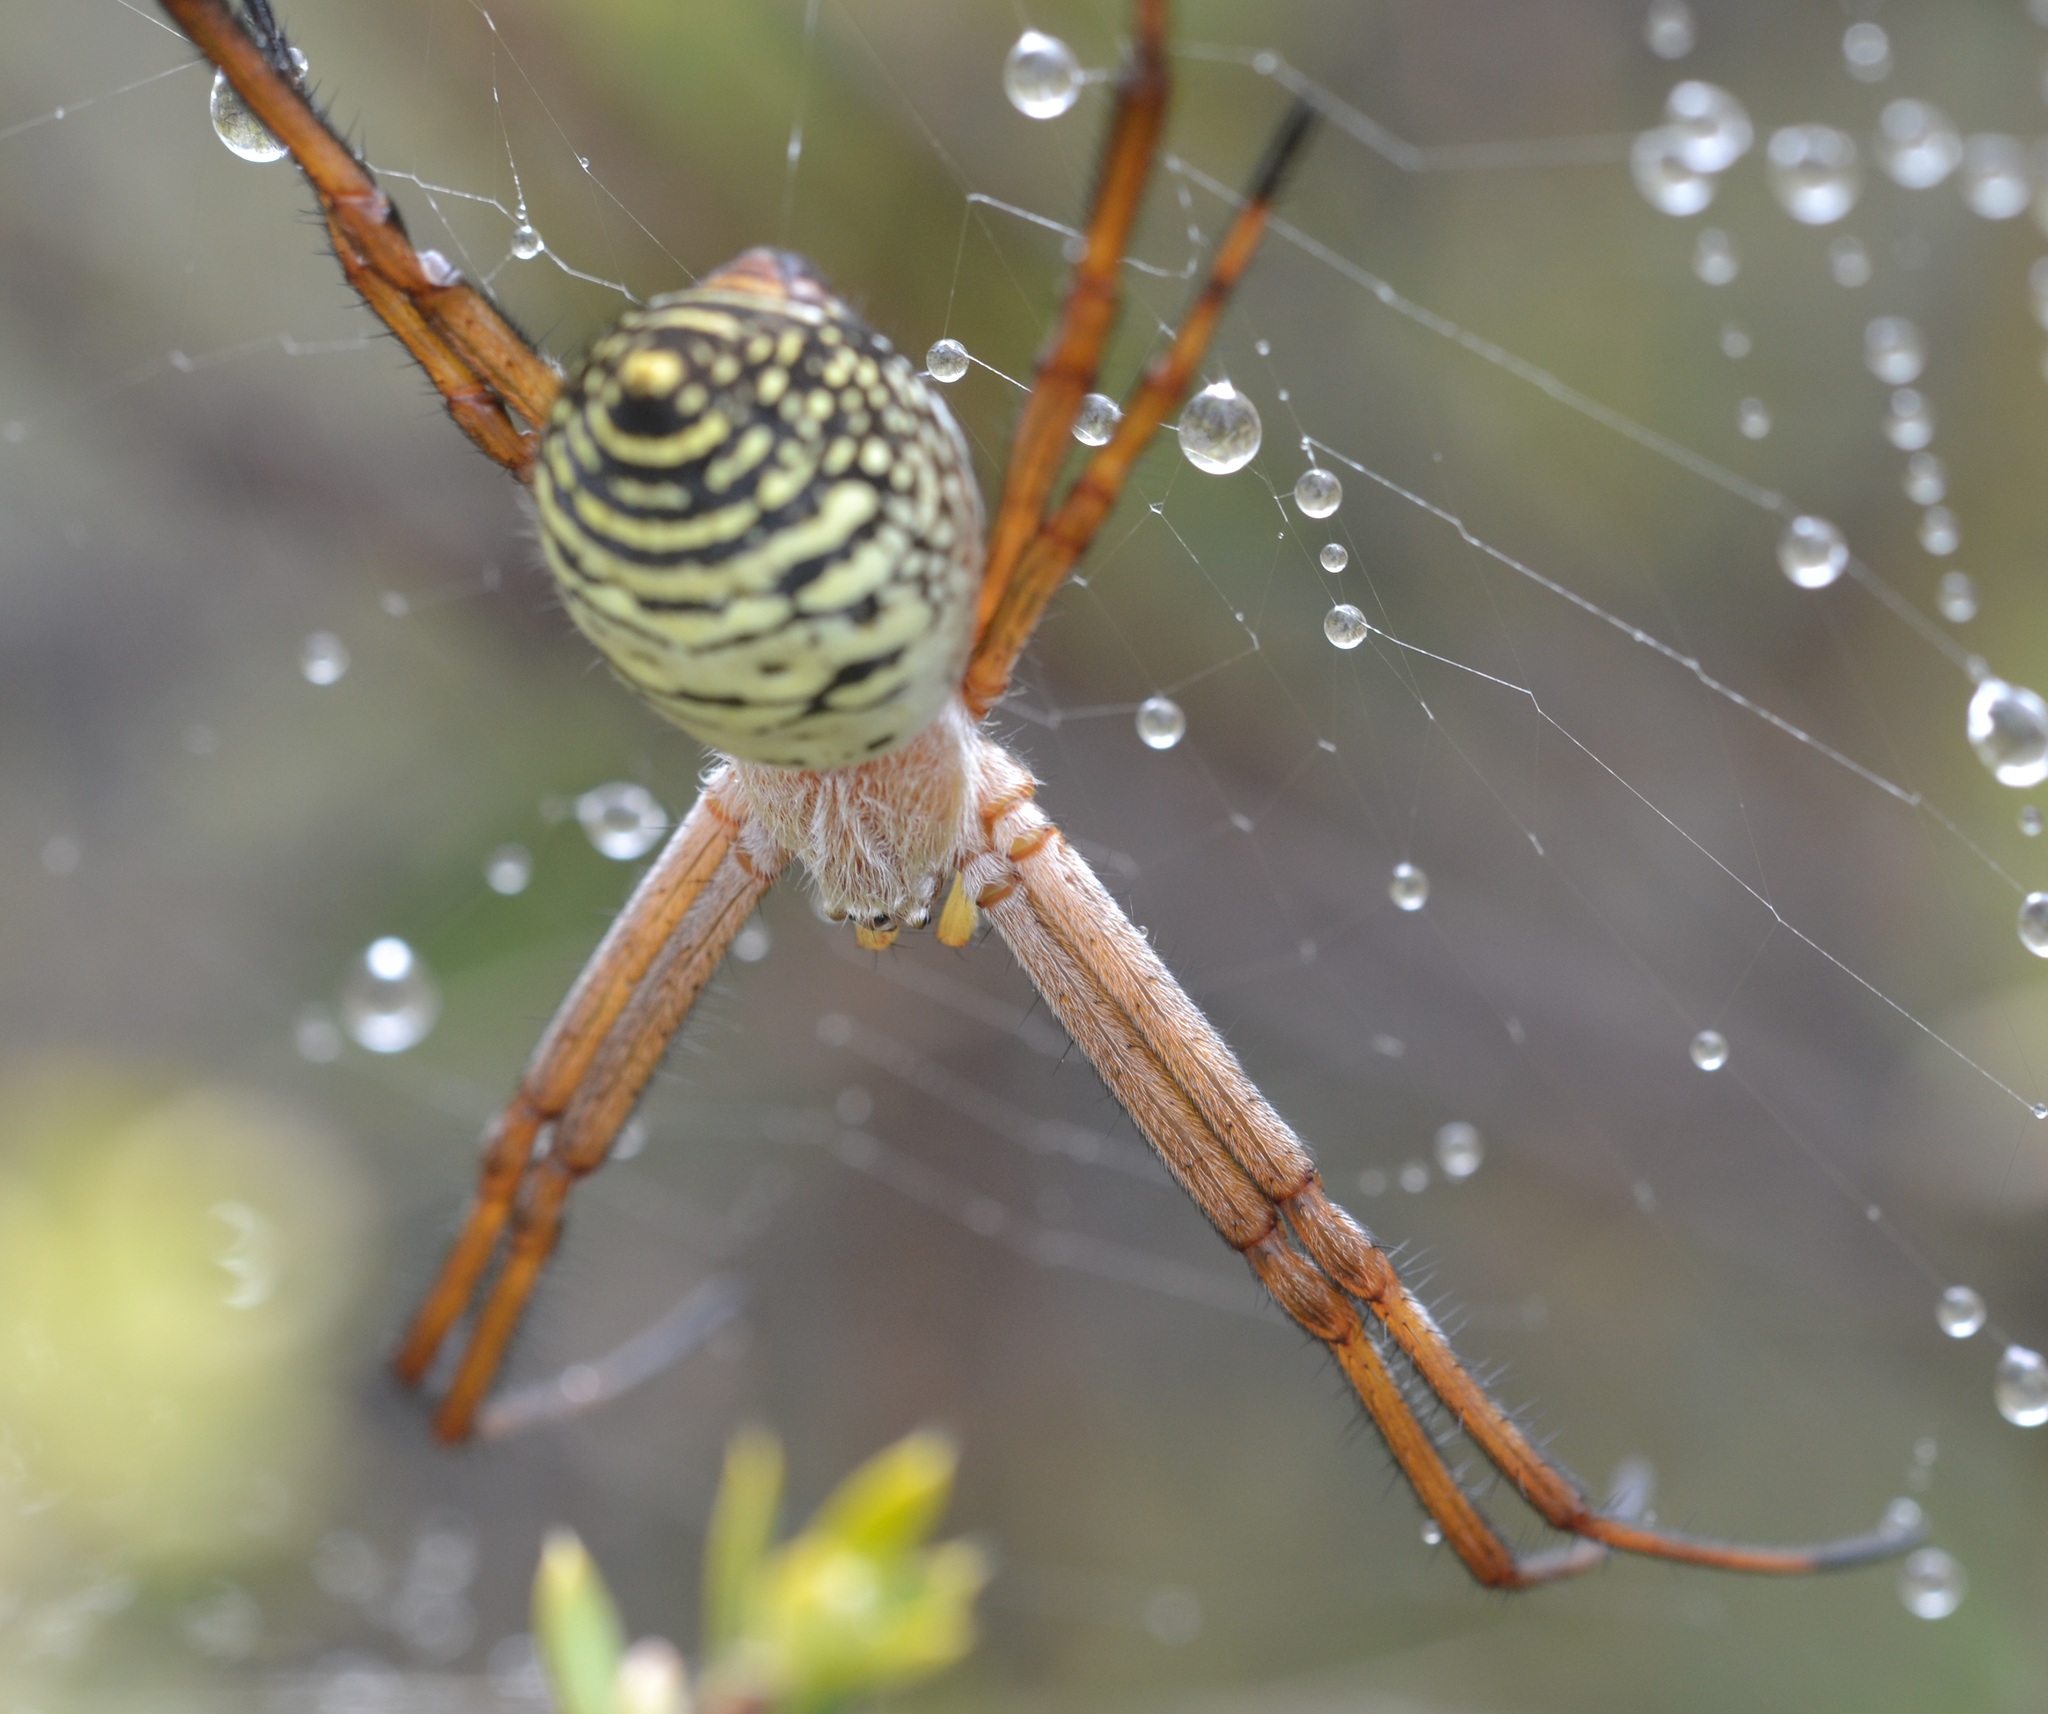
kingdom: Animalia
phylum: Arthropoda
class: Arachnida
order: Araneae
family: Araneidae
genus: Argiope
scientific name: Argiope trifasciata
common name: Banded garden spider
